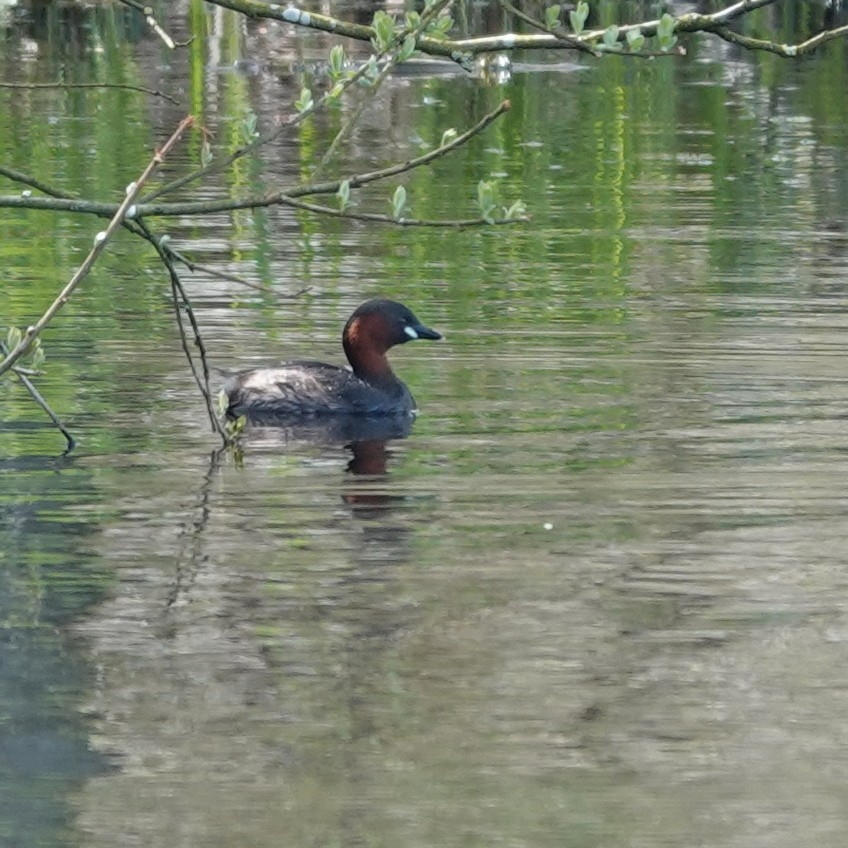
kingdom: Animalia
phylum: Chordata
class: Aves
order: Podicipediformes
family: Podicipedidae
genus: Tachybaptus
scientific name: Tachybaptus ruficollis
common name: Little grebe
